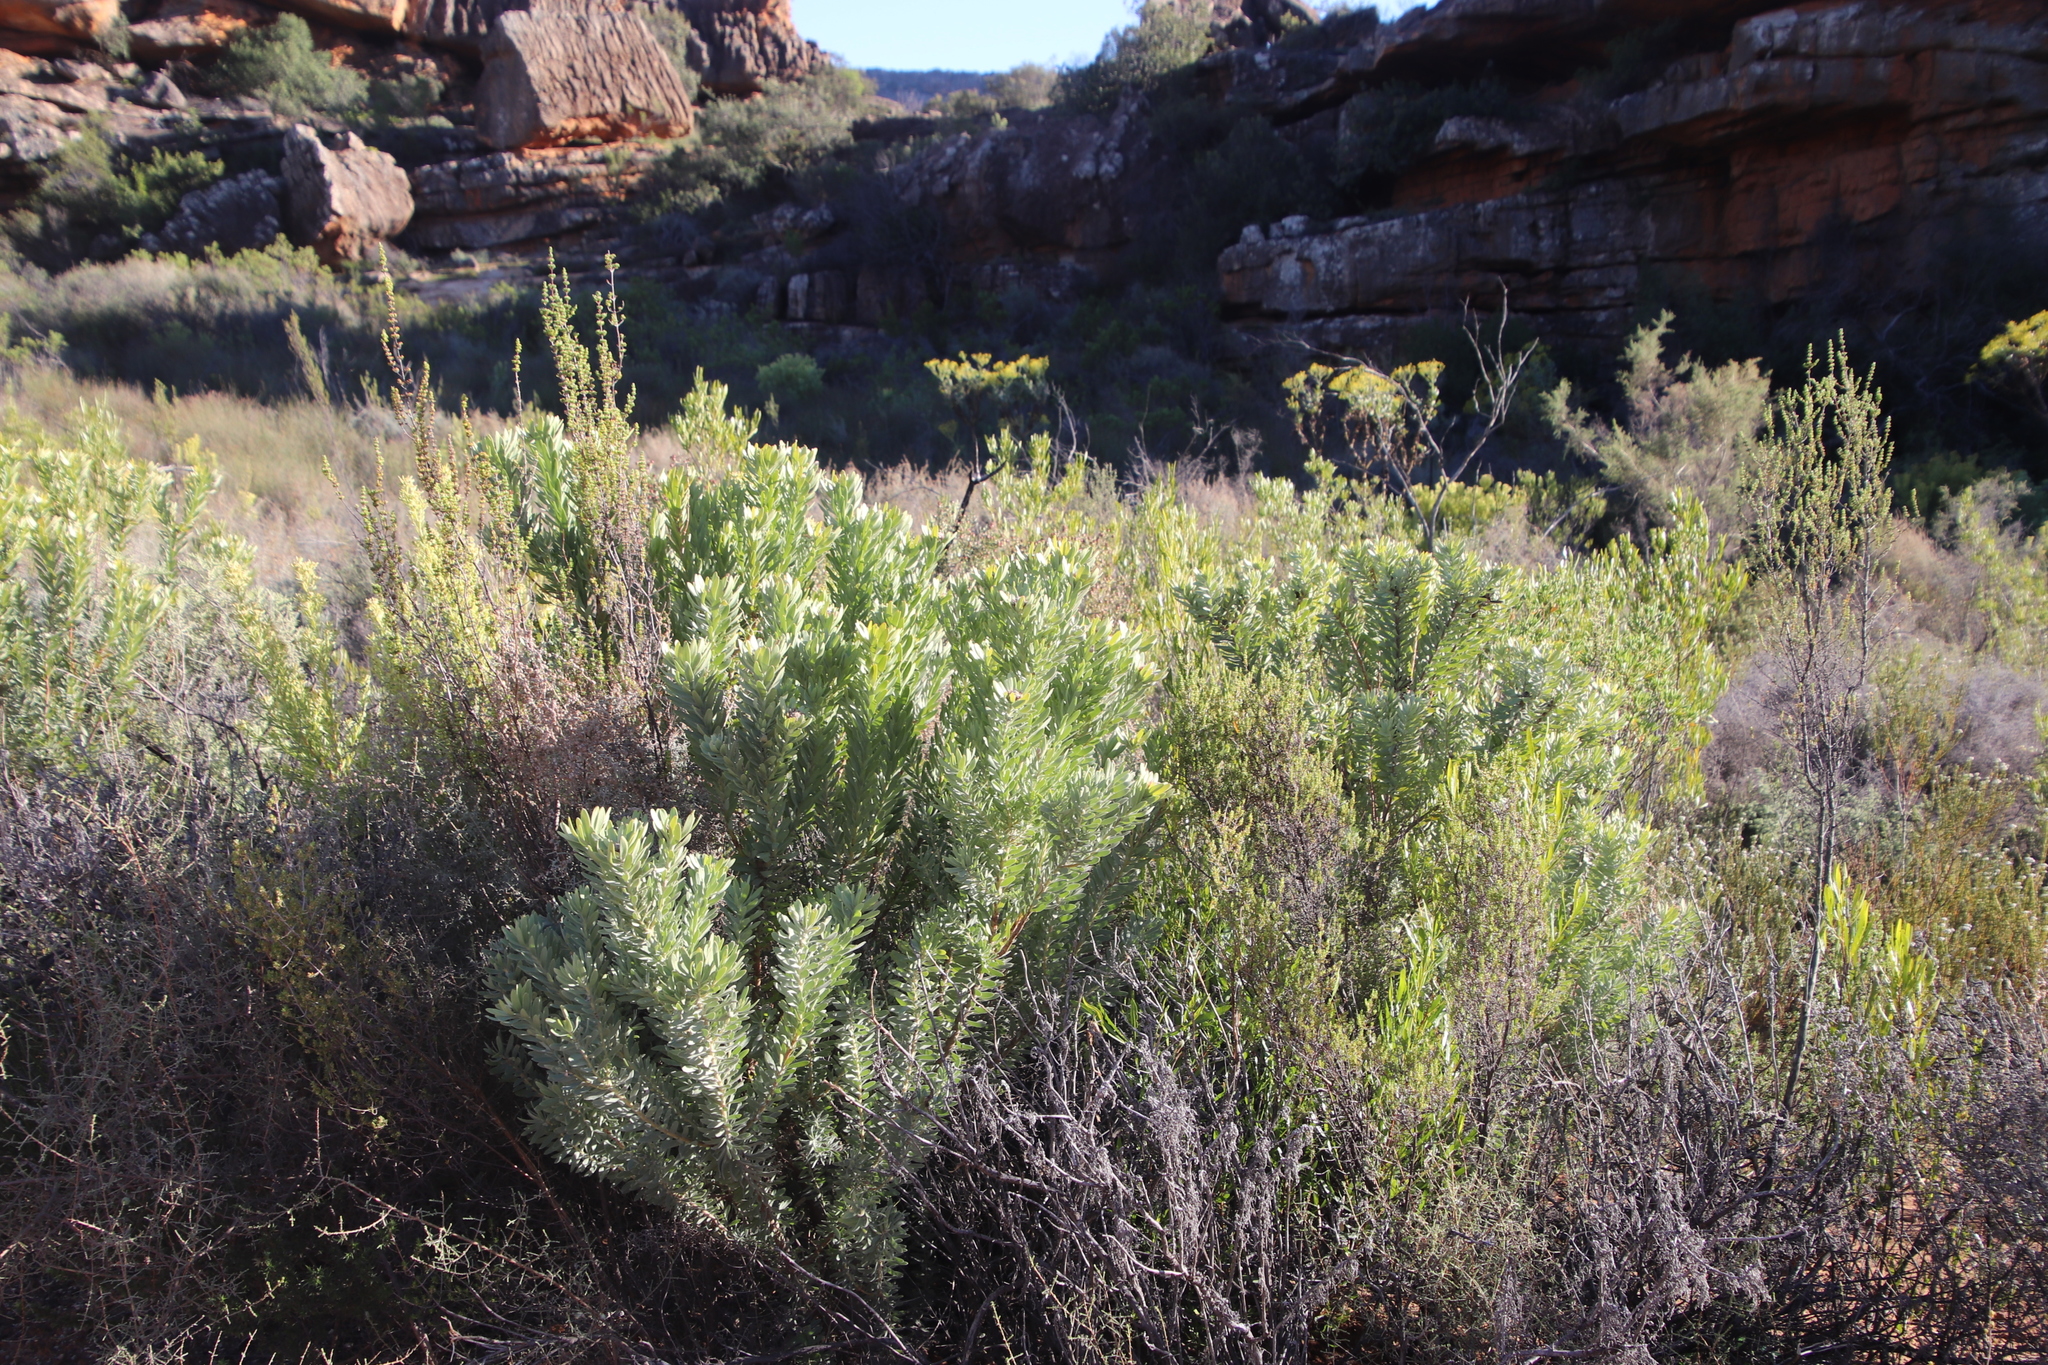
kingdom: Plantae
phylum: Tracheophyta
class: Magnoliopsida
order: Proteales
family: Proteaceae
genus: Leucadendron
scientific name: Leucadendron pubescens
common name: Grey conebush
